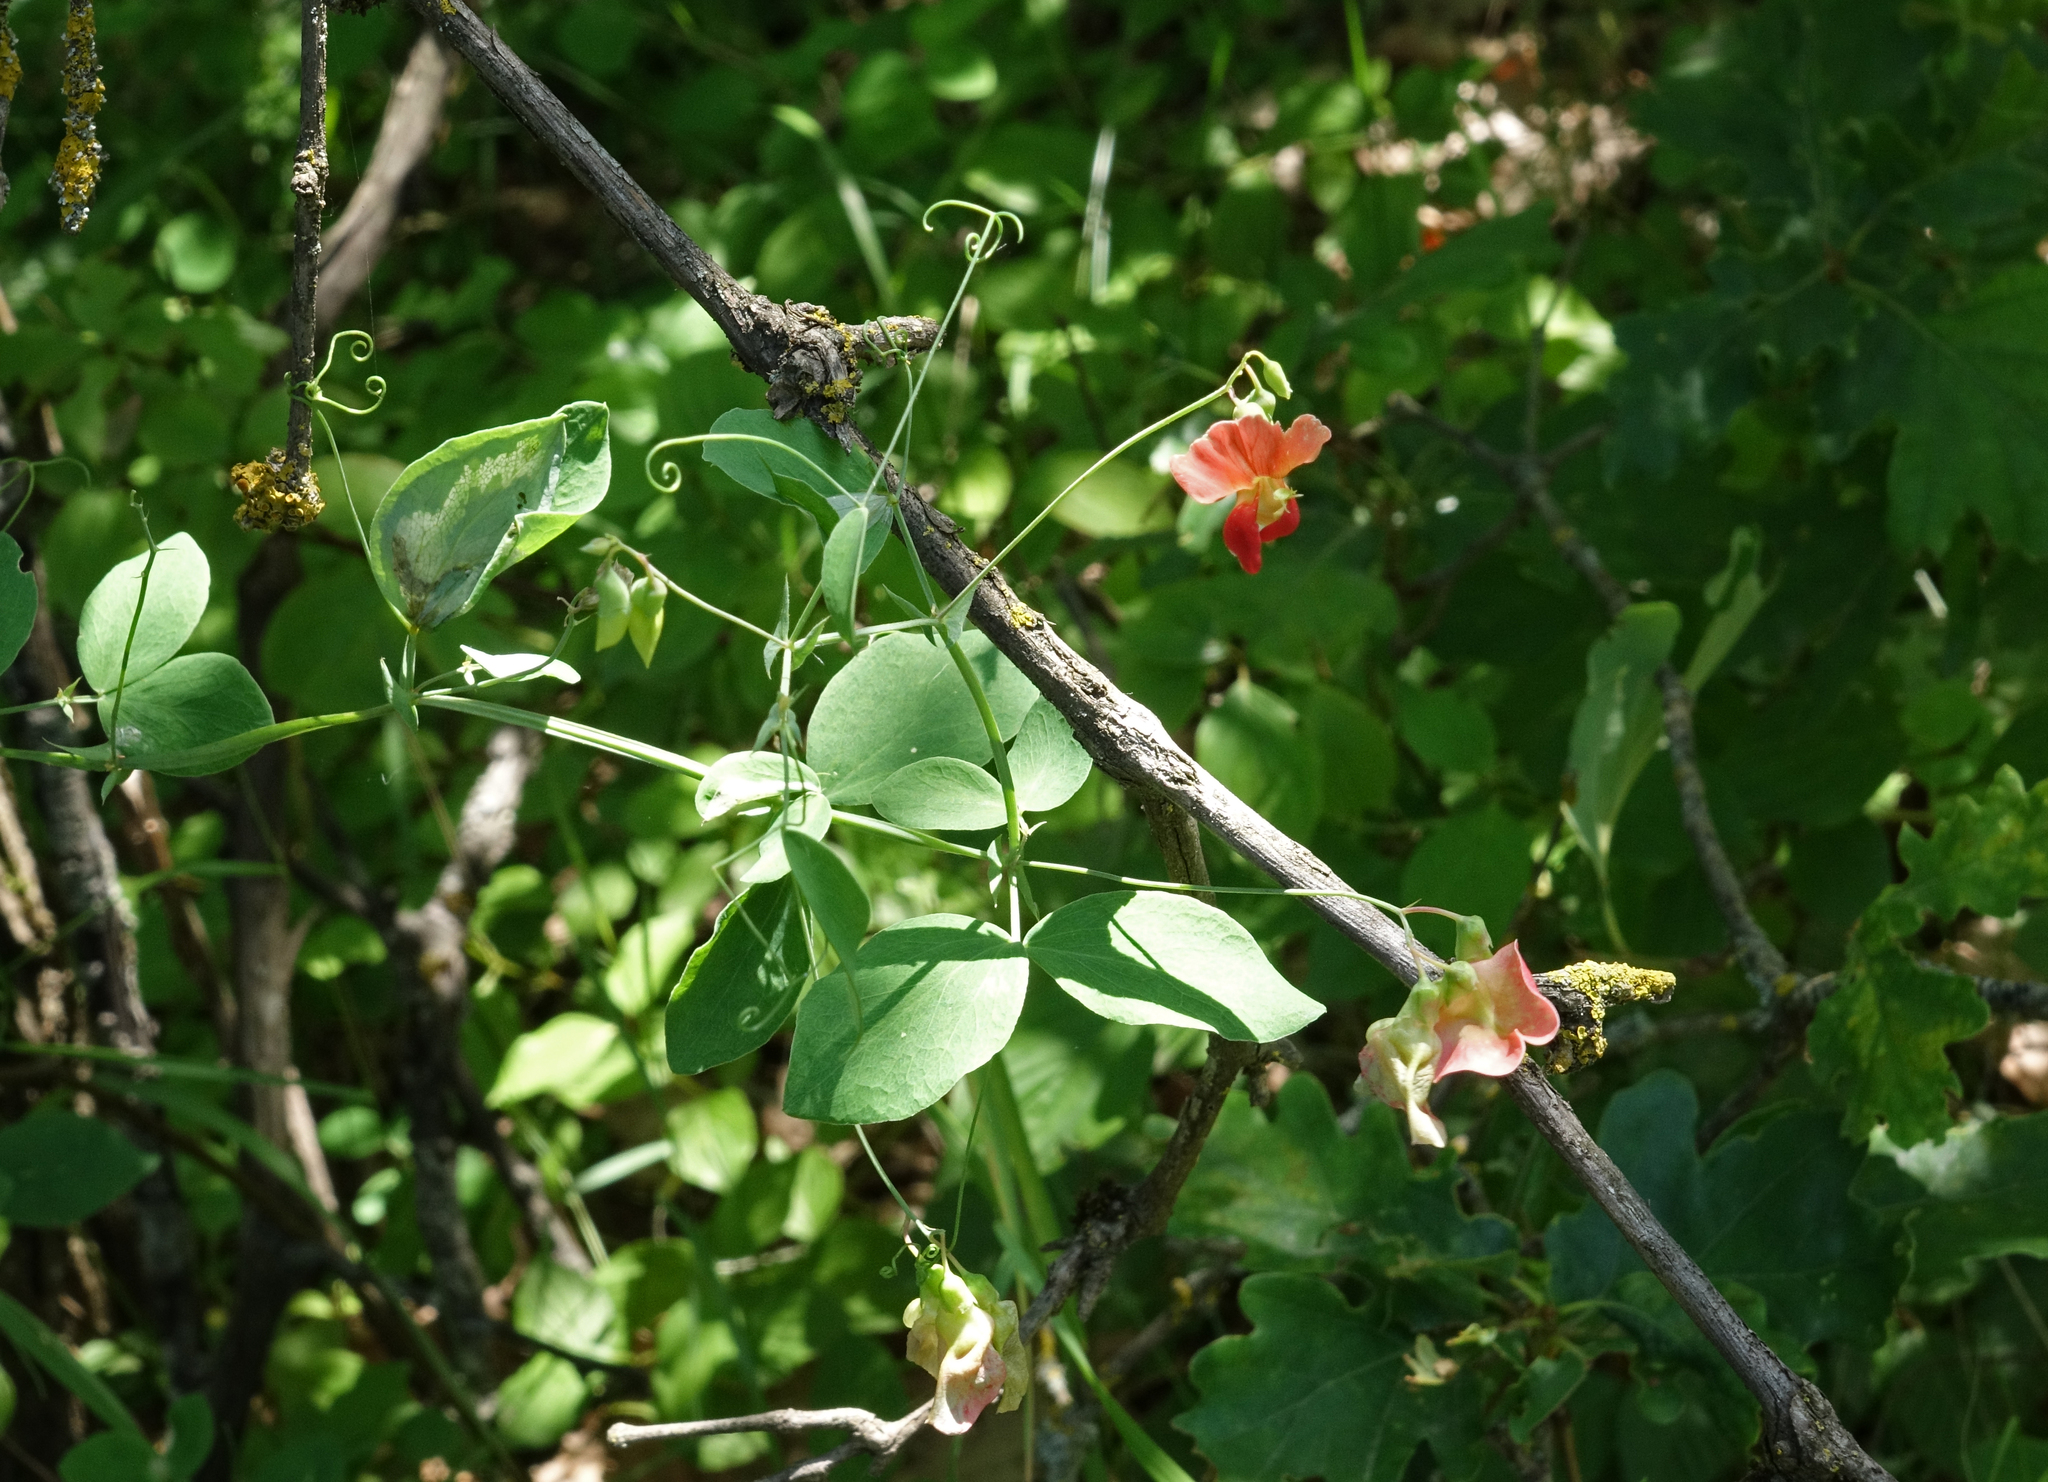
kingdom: Plantae
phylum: Tracheophyta
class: Magnoliopsida
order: Fabales
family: Fabaceae
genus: Lathyrus
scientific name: Lathyrus miniatus
